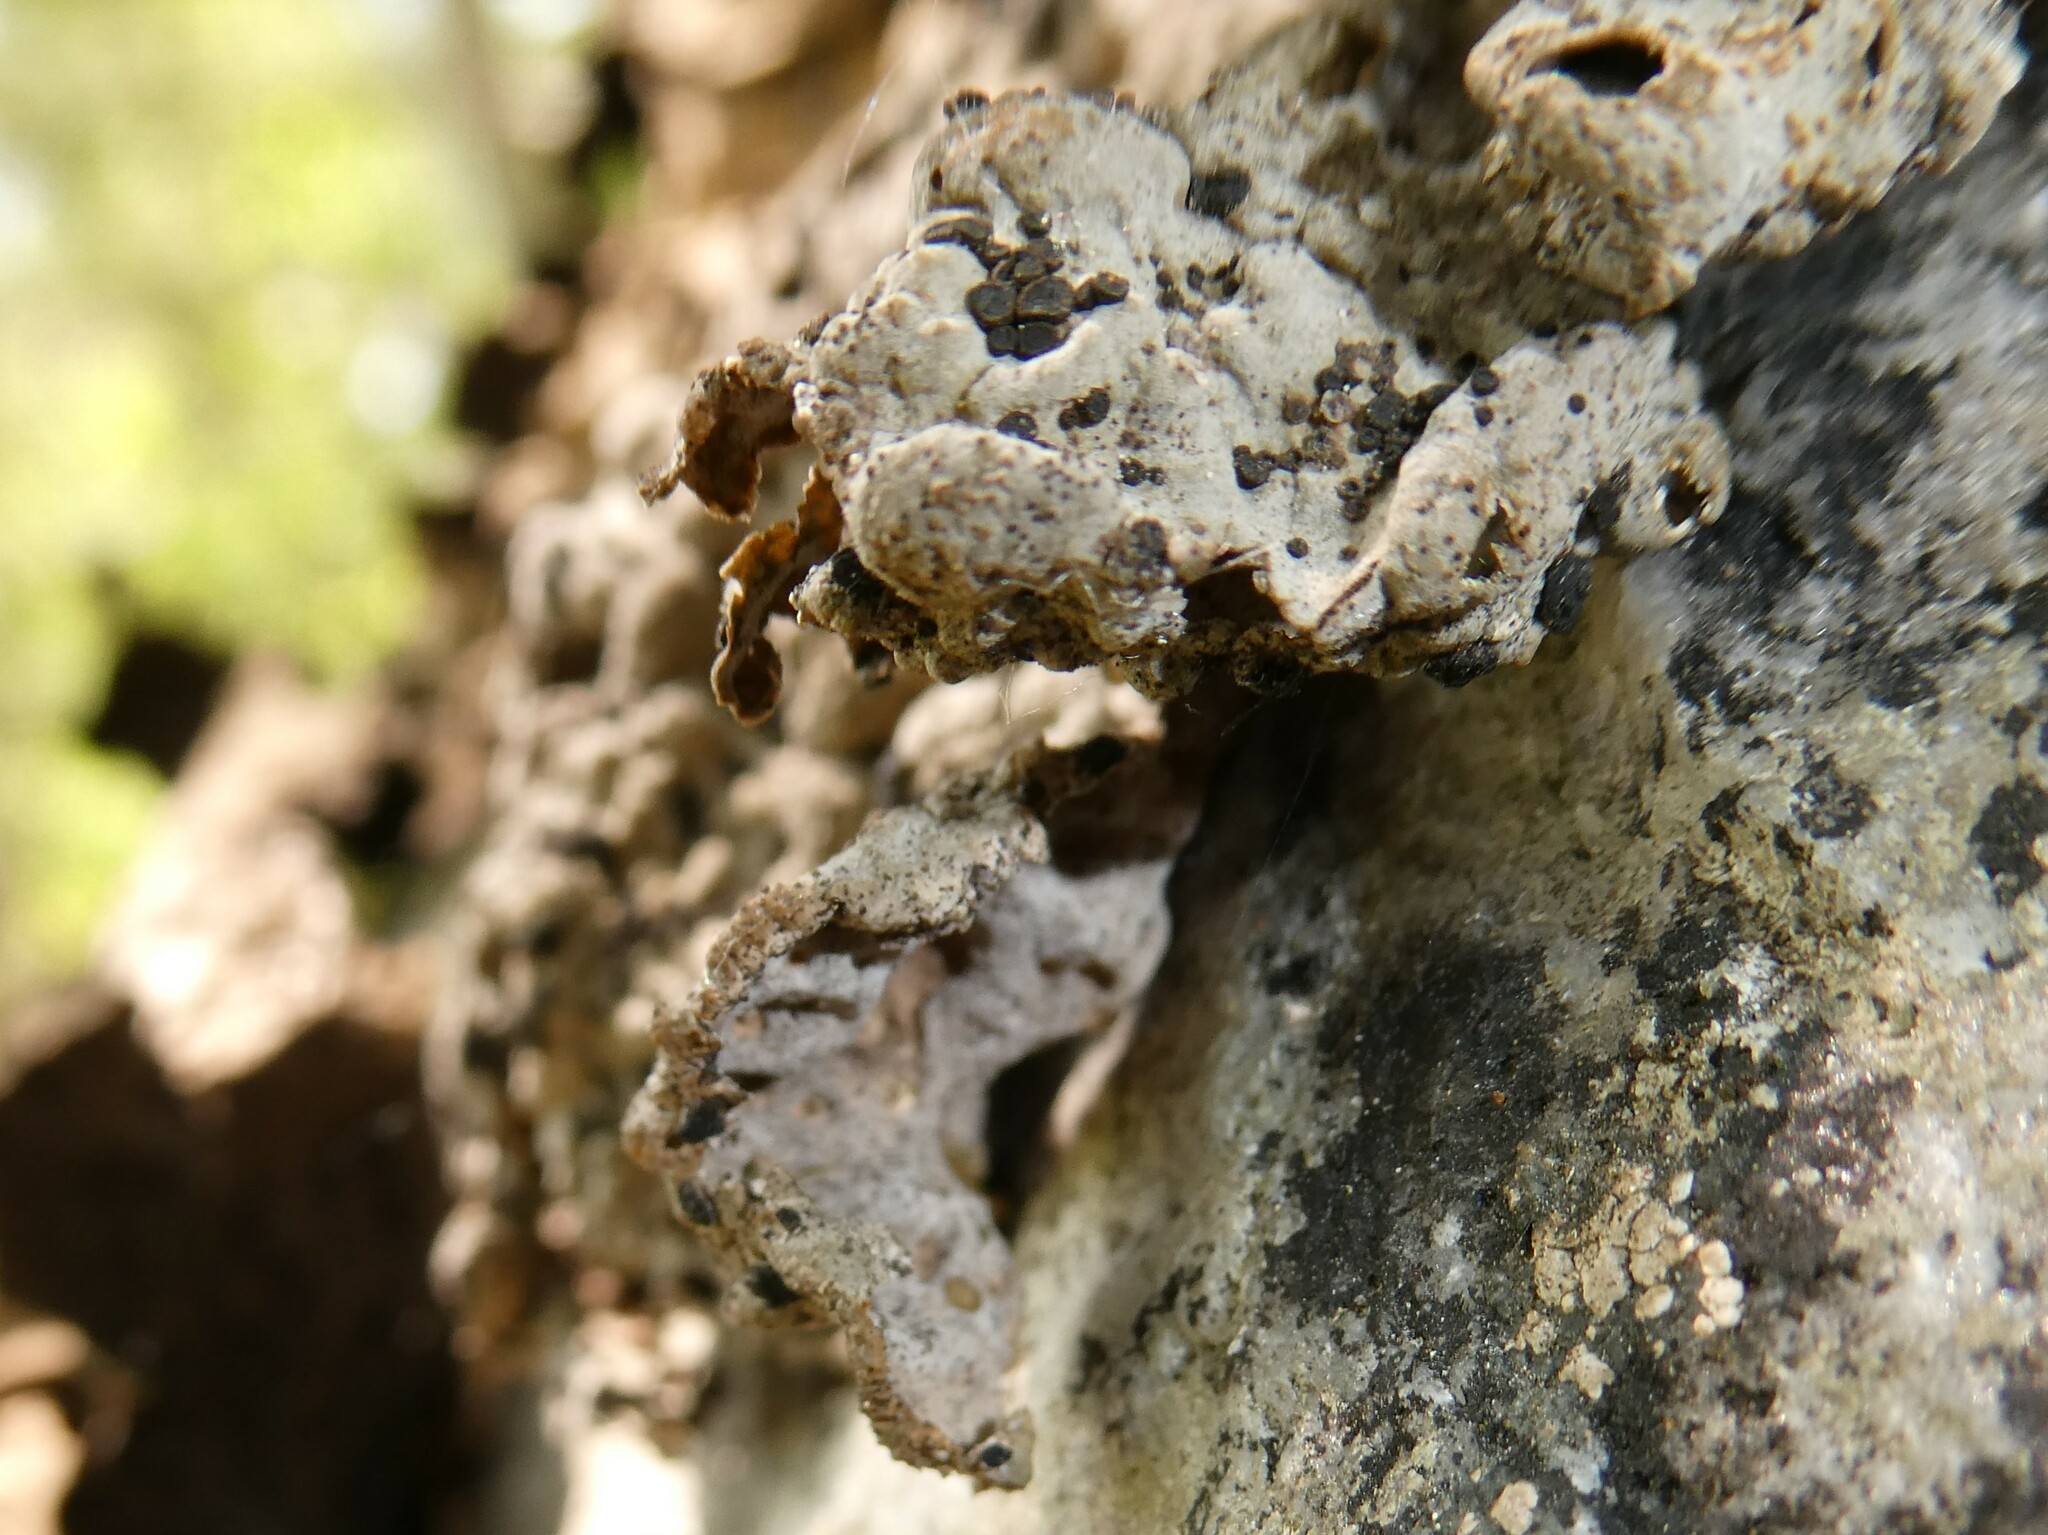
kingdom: Fungi
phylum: Ascomycota
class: Lecanoromycetes
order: Umbilicariales
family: Umbilicariaceae
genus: Lasallia
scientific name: Lasallia papulosa
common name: Common toadskin lichen
